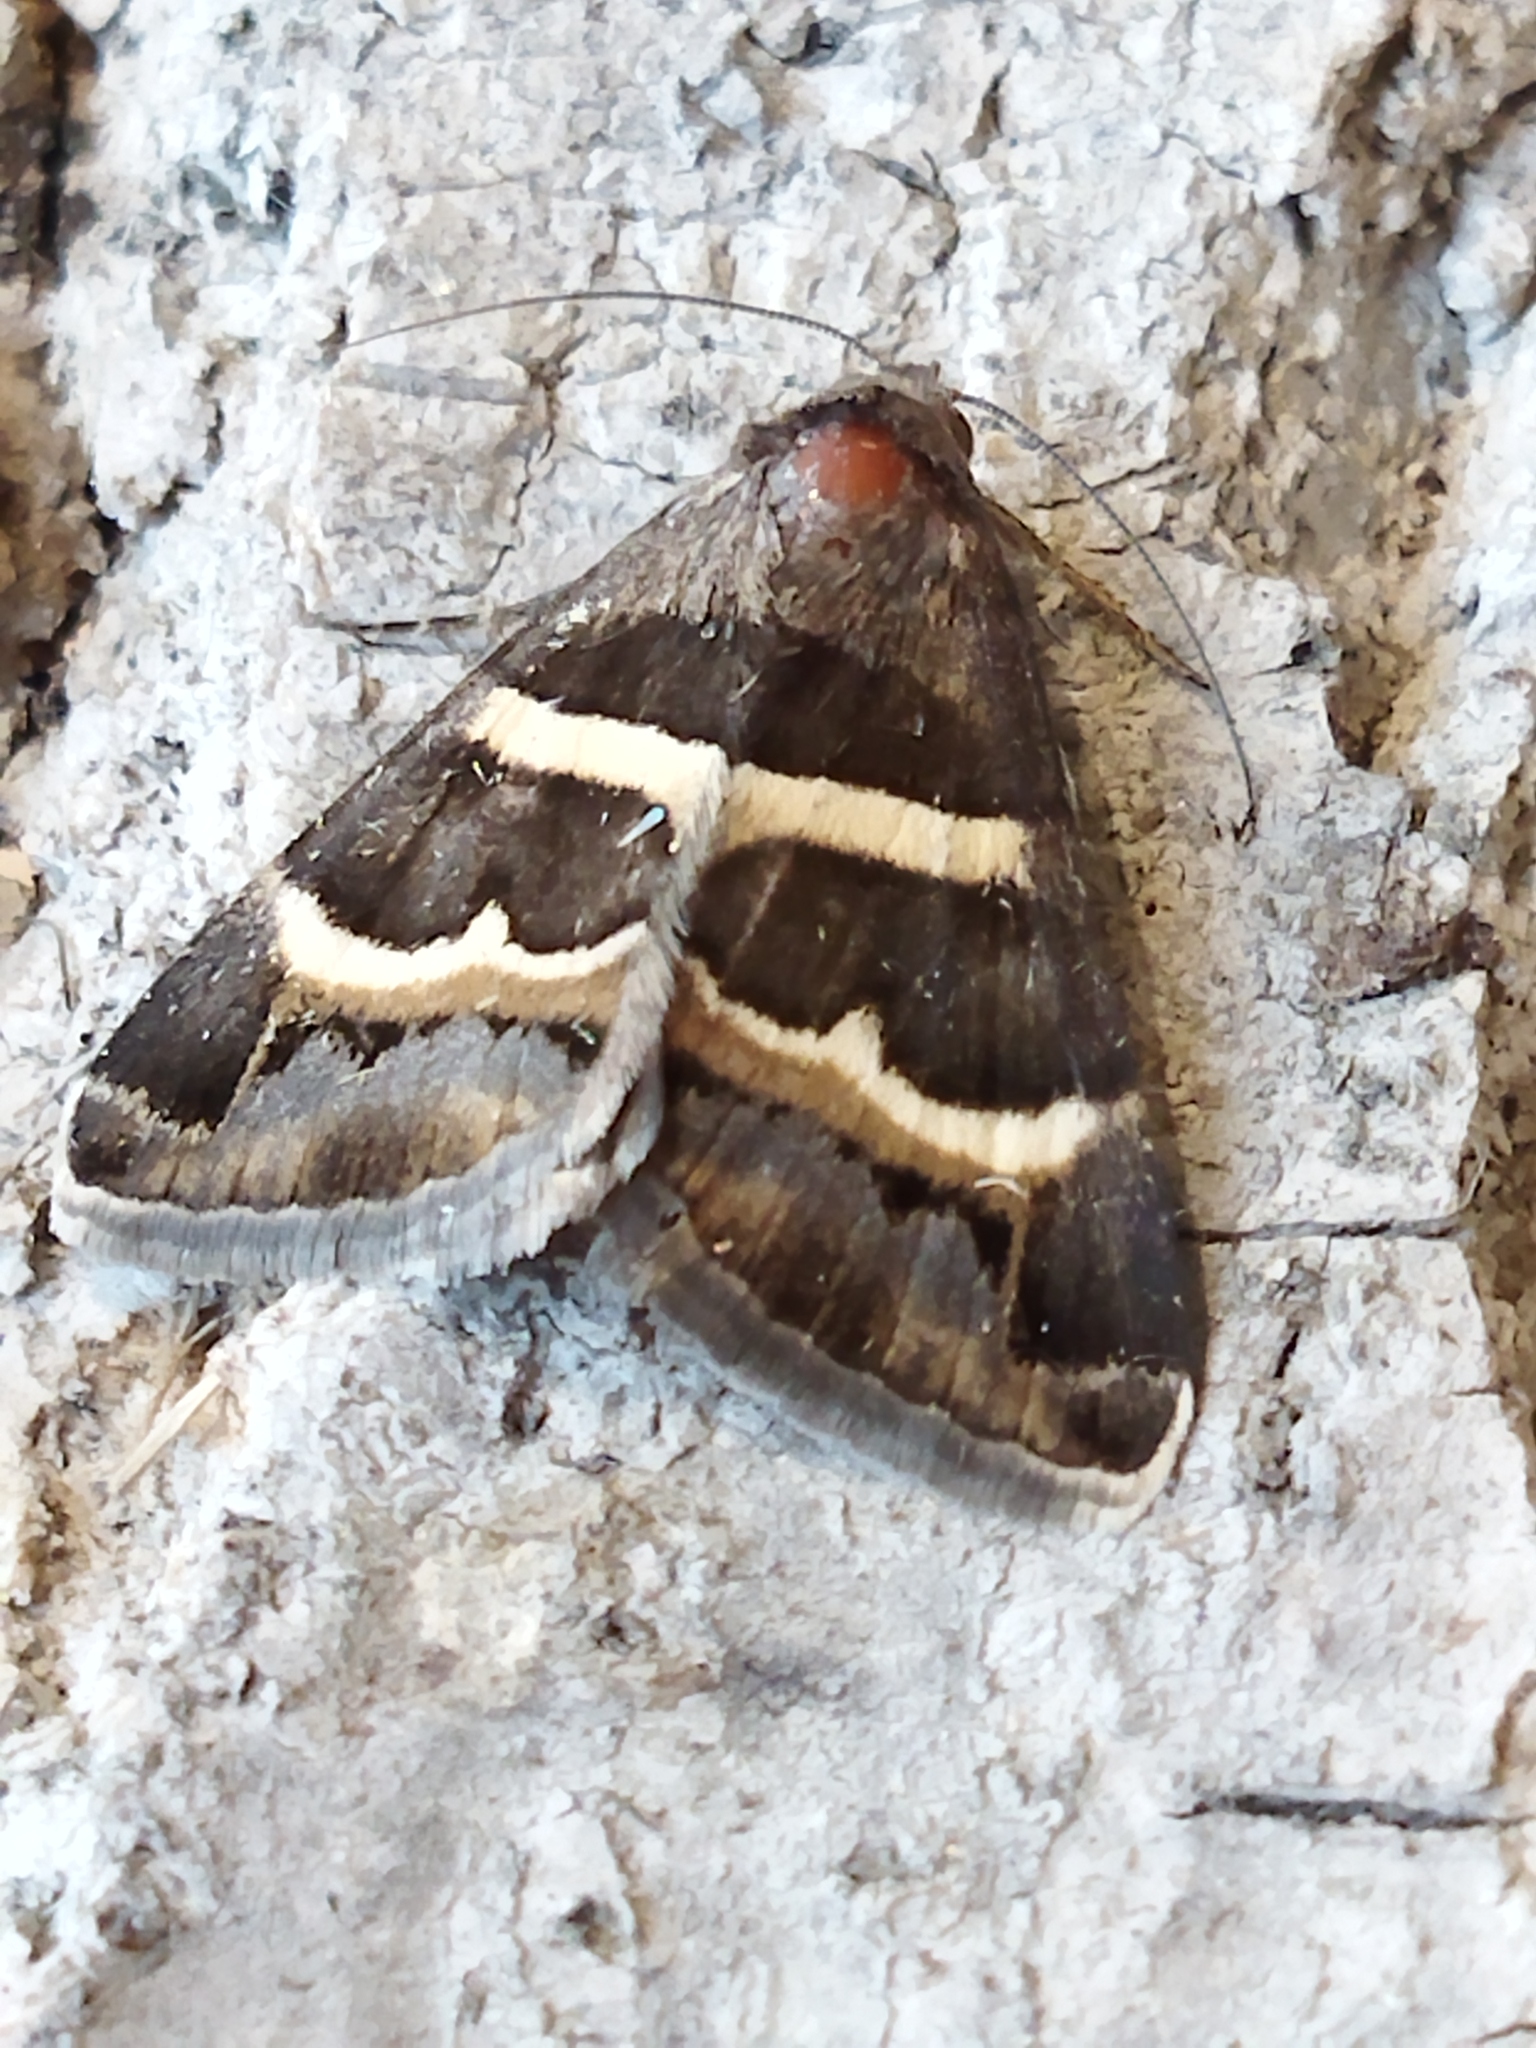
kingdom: Animalia
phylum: Arthropoda
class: Insecta
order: Lepidoptera
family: Erebidae
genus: Grammodes
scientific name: Grammodes stolida
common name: Geometrician
